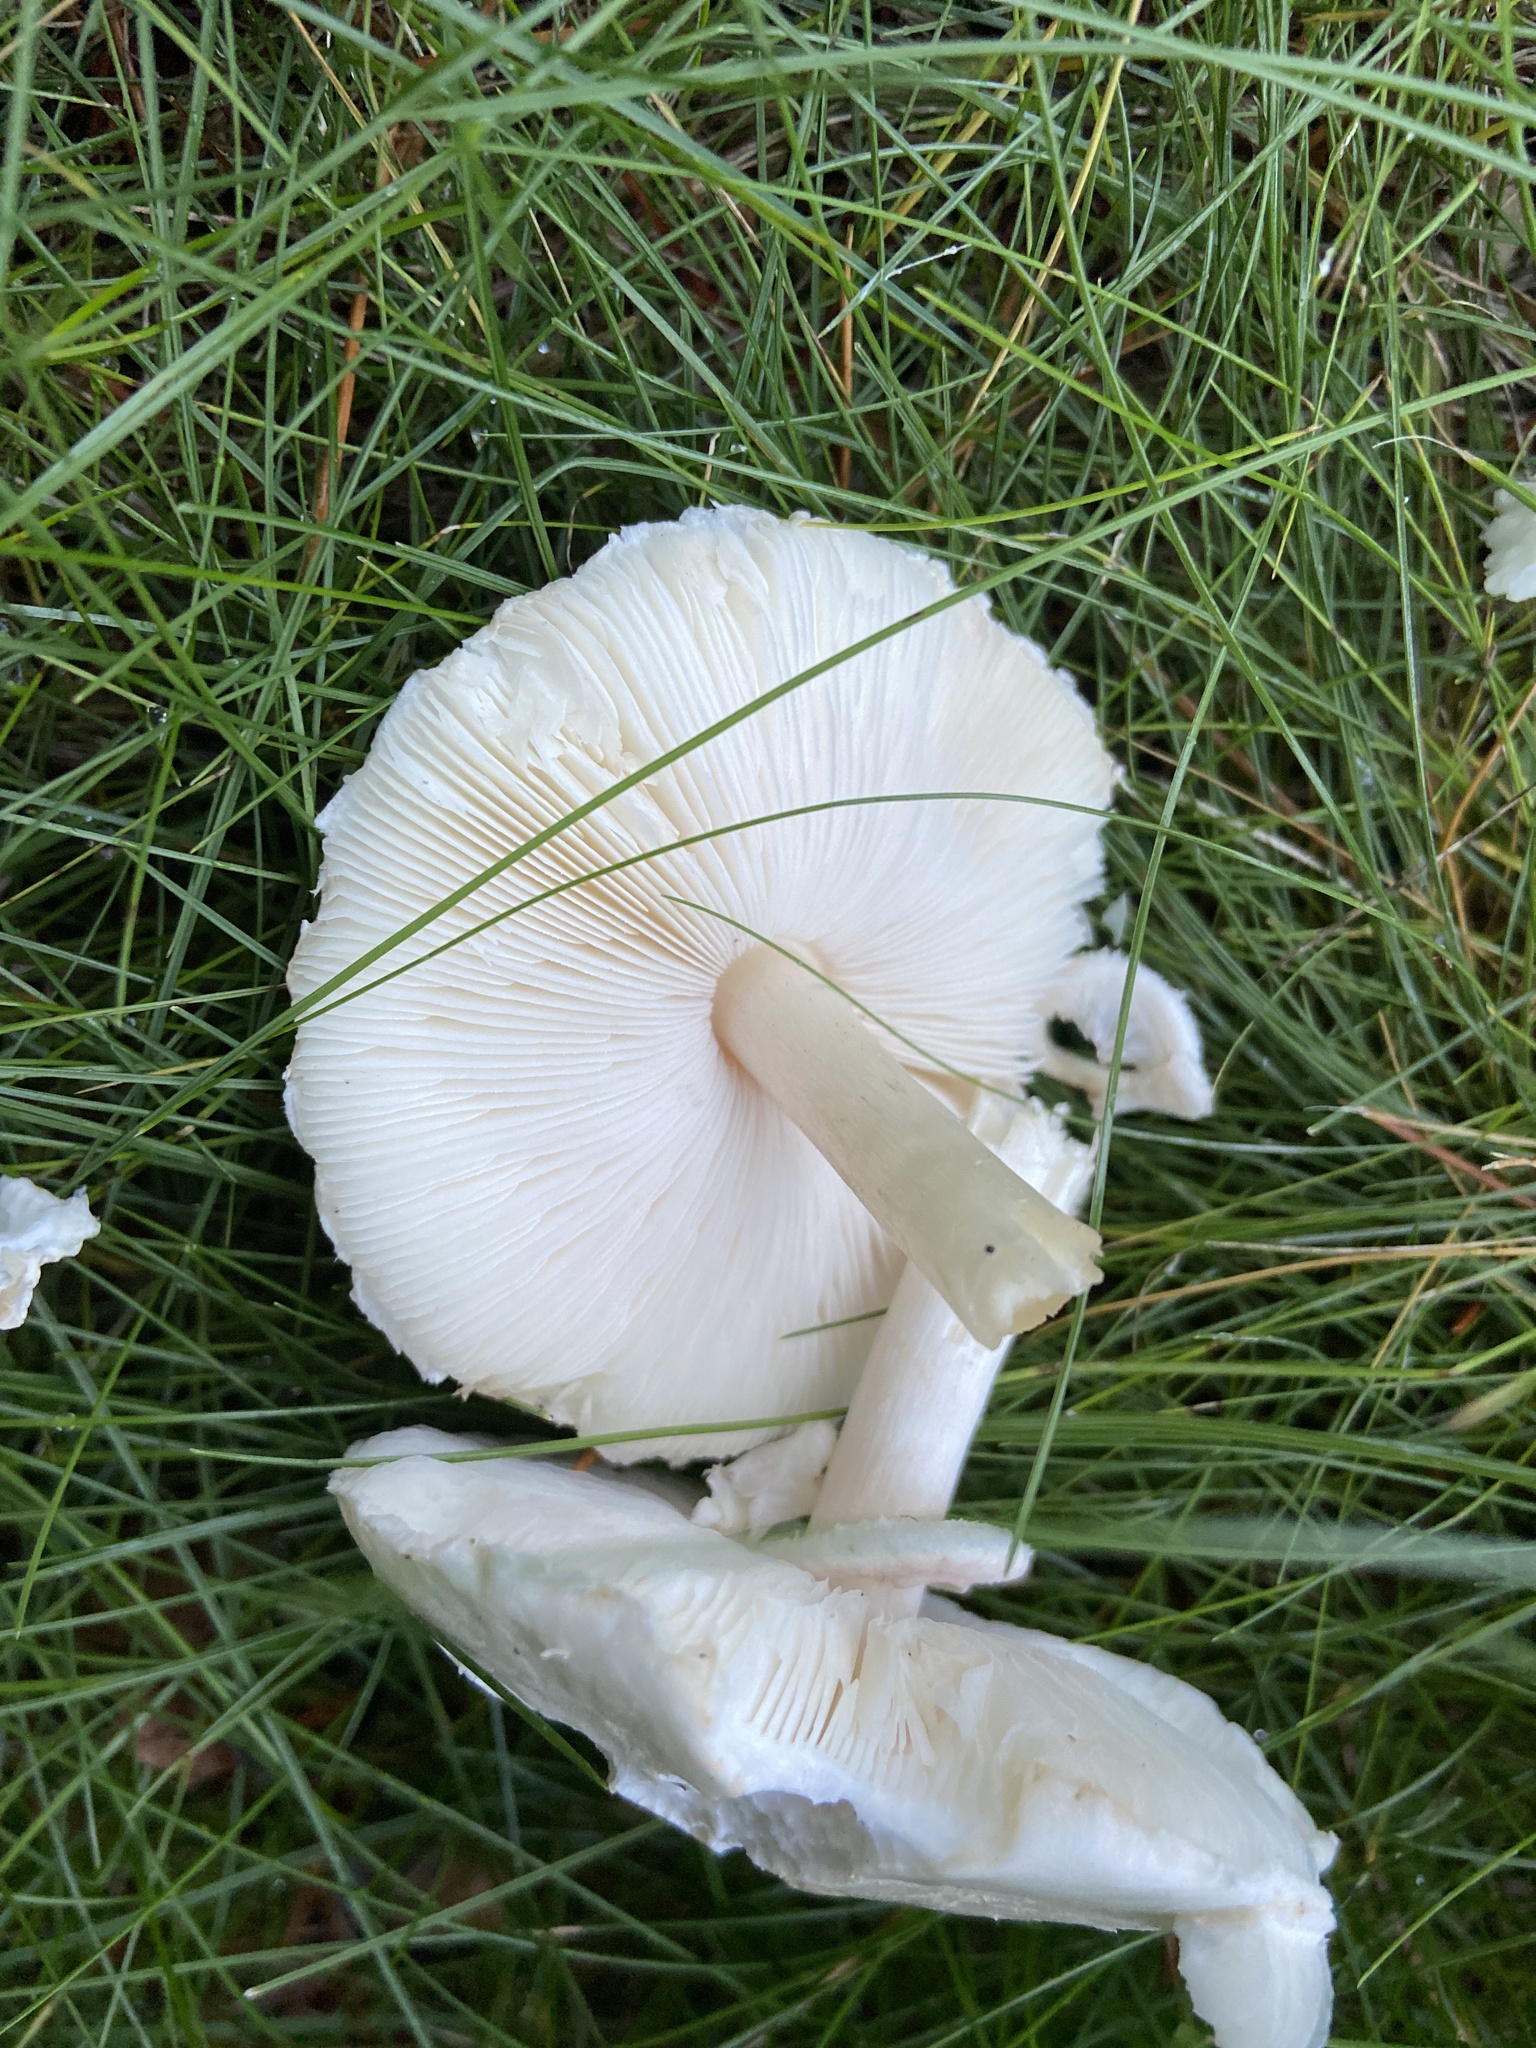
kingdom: Fungi
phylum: Basidiomycota
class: Agaricomycetes
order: Agaricales
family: Agaricaceae
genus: Leucoagaricus
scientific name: Leucoagaricus leucothites
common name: White dapperling
